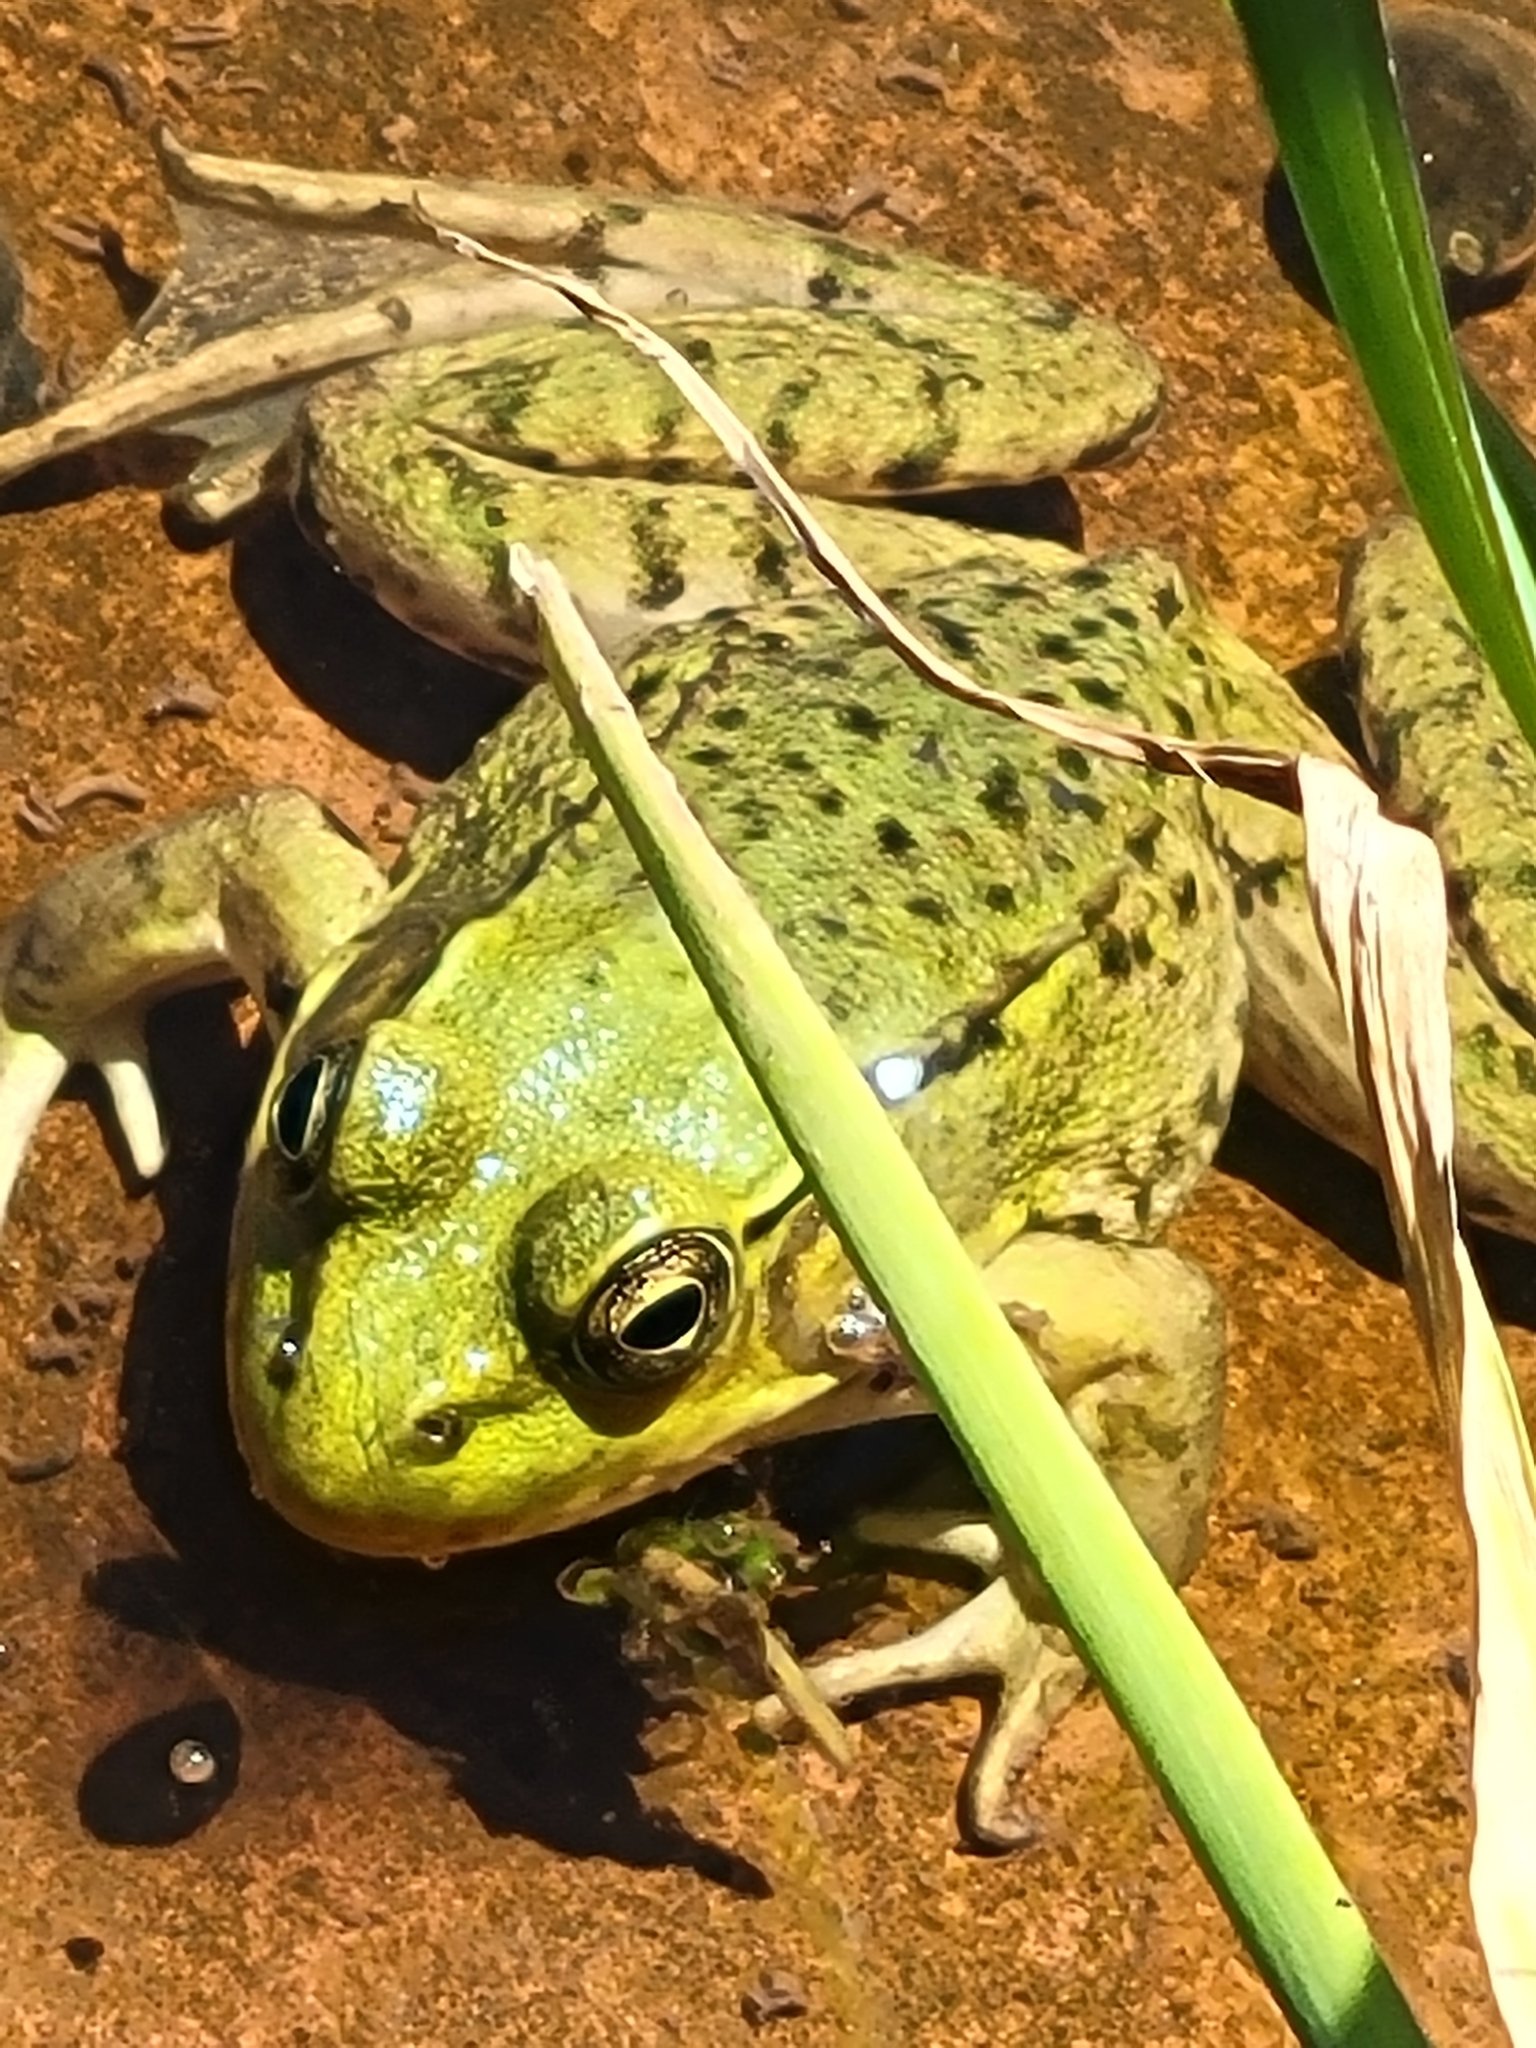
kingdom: Animalia
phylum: Chordata
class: Amphibia
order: Anura
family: Ranidae
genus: Lithobates
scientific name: Lithobates clamitans
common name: Green frog
